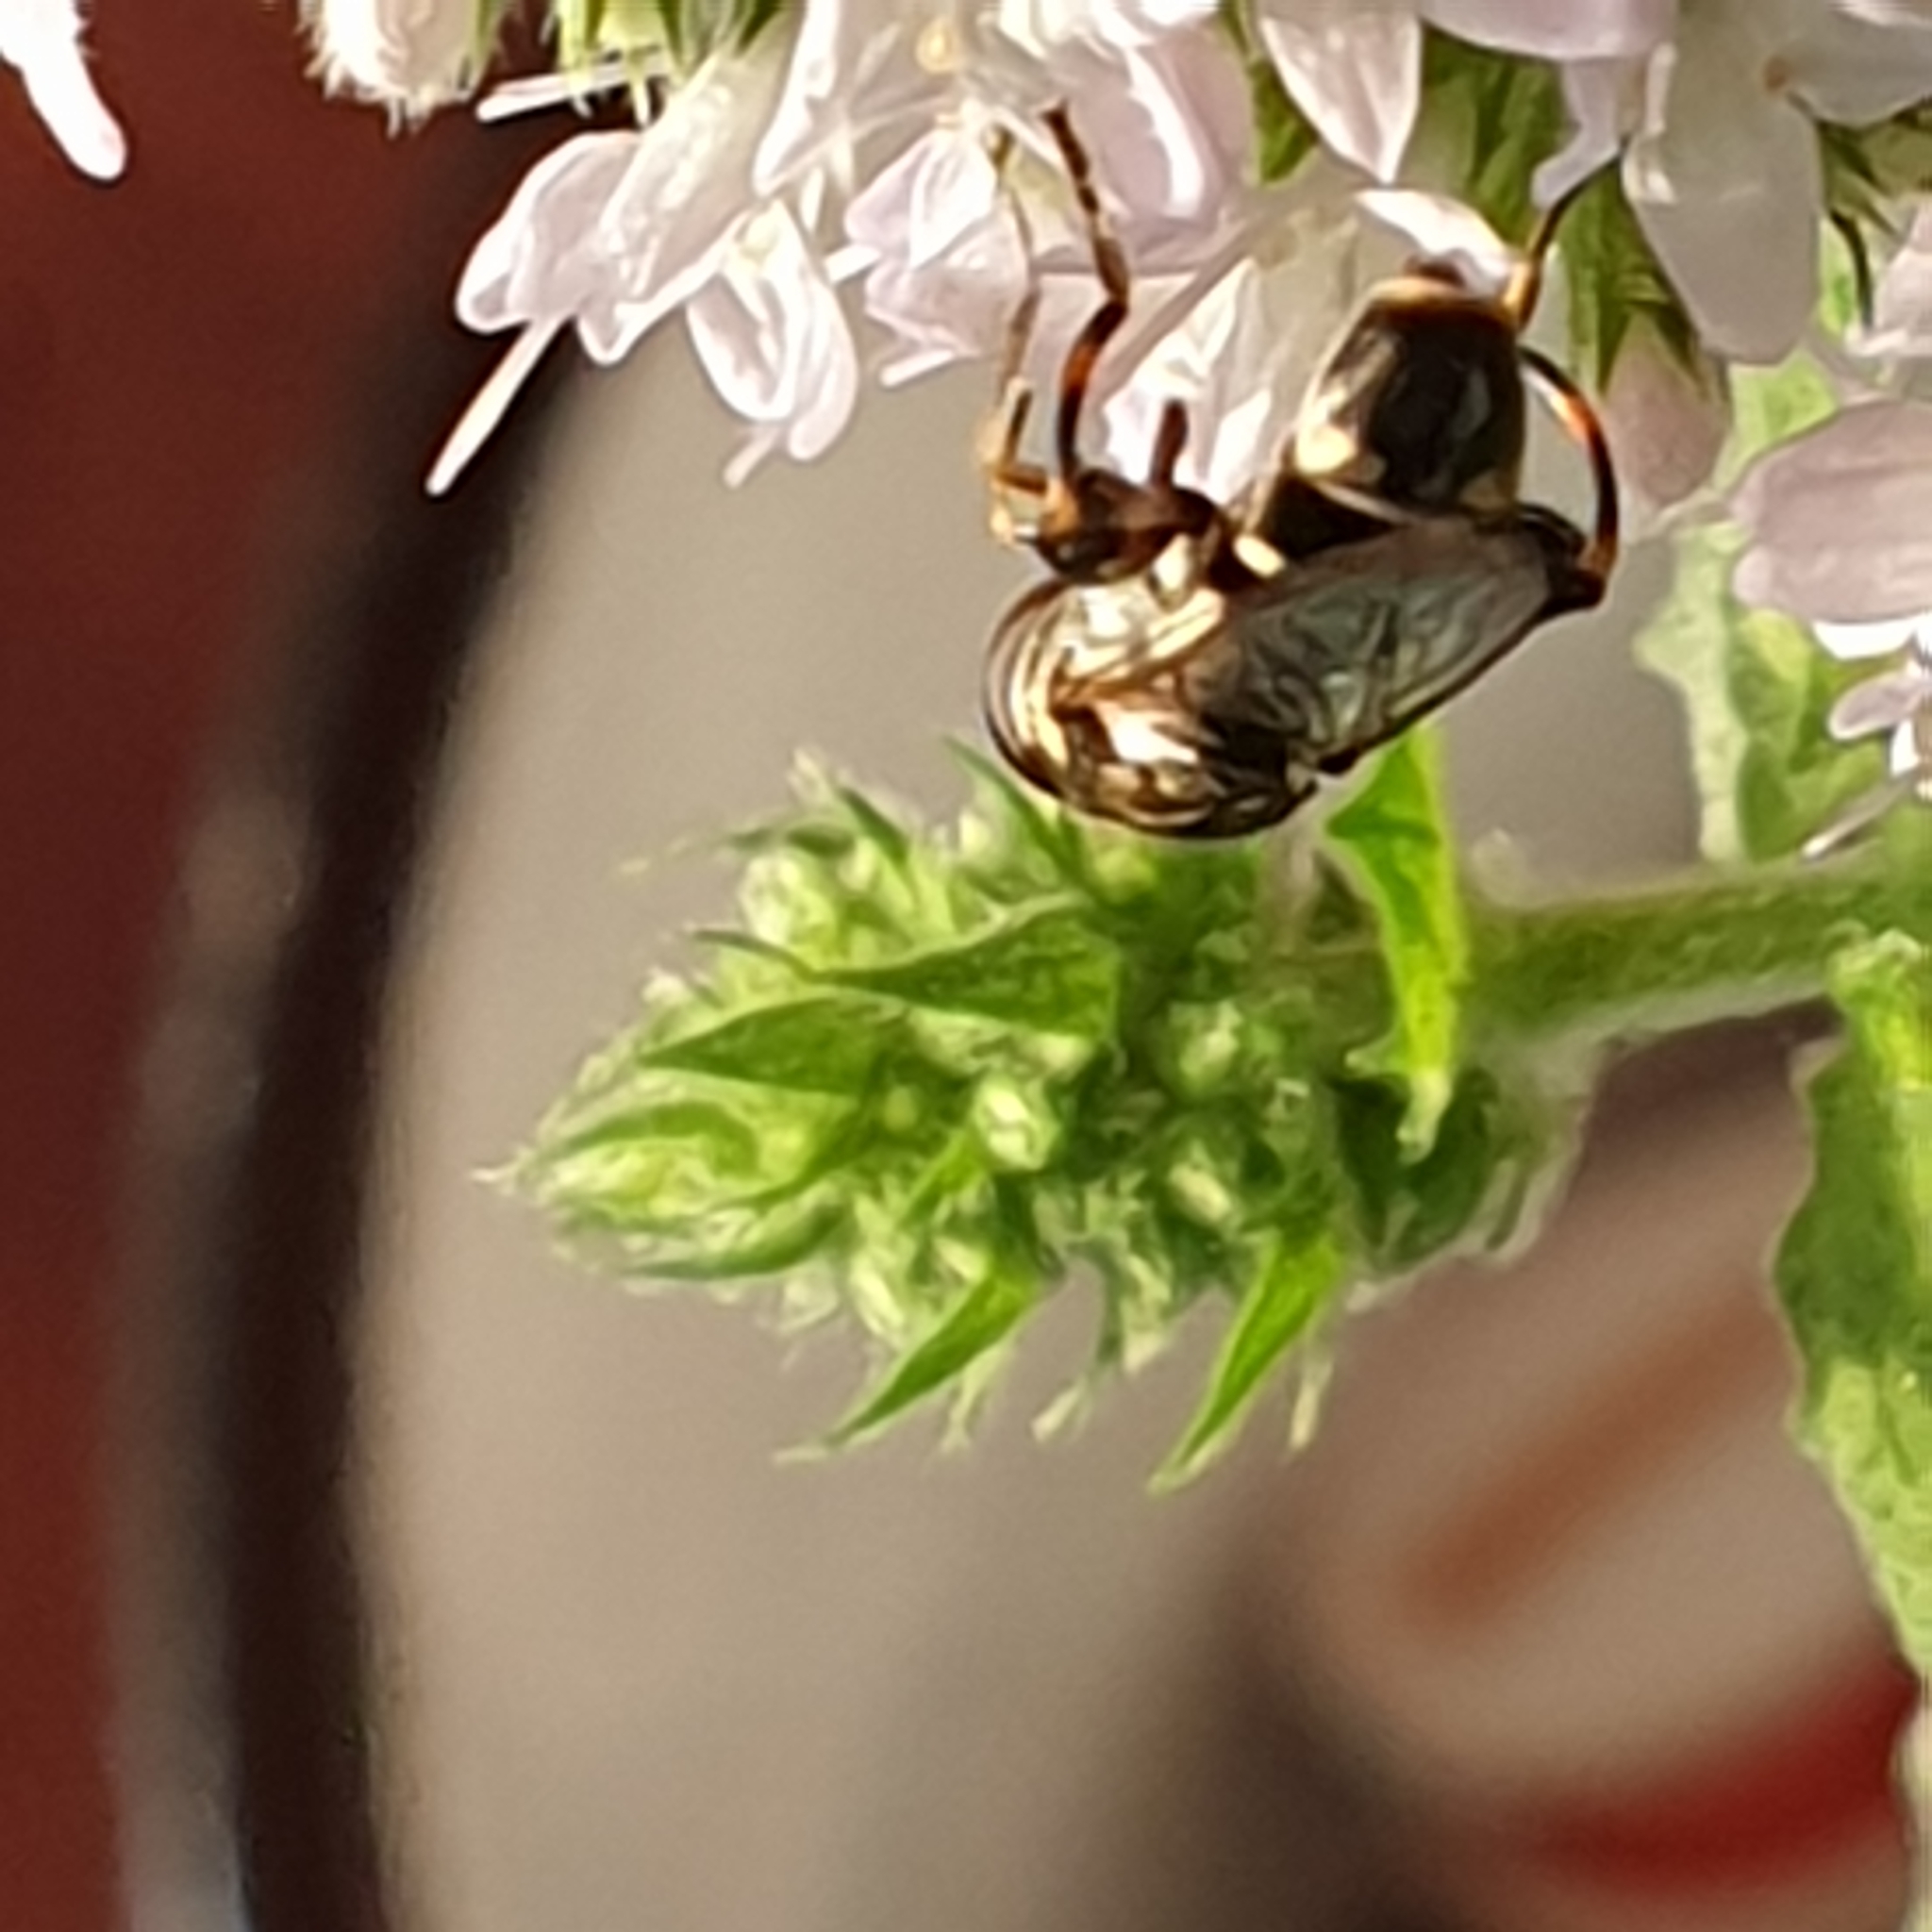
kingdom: Animalia
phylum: Arthropoda
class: Insecta
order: Diptera
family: Syrphidae
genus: Syritta
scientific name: Syritta pipiens
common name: Hover fly
